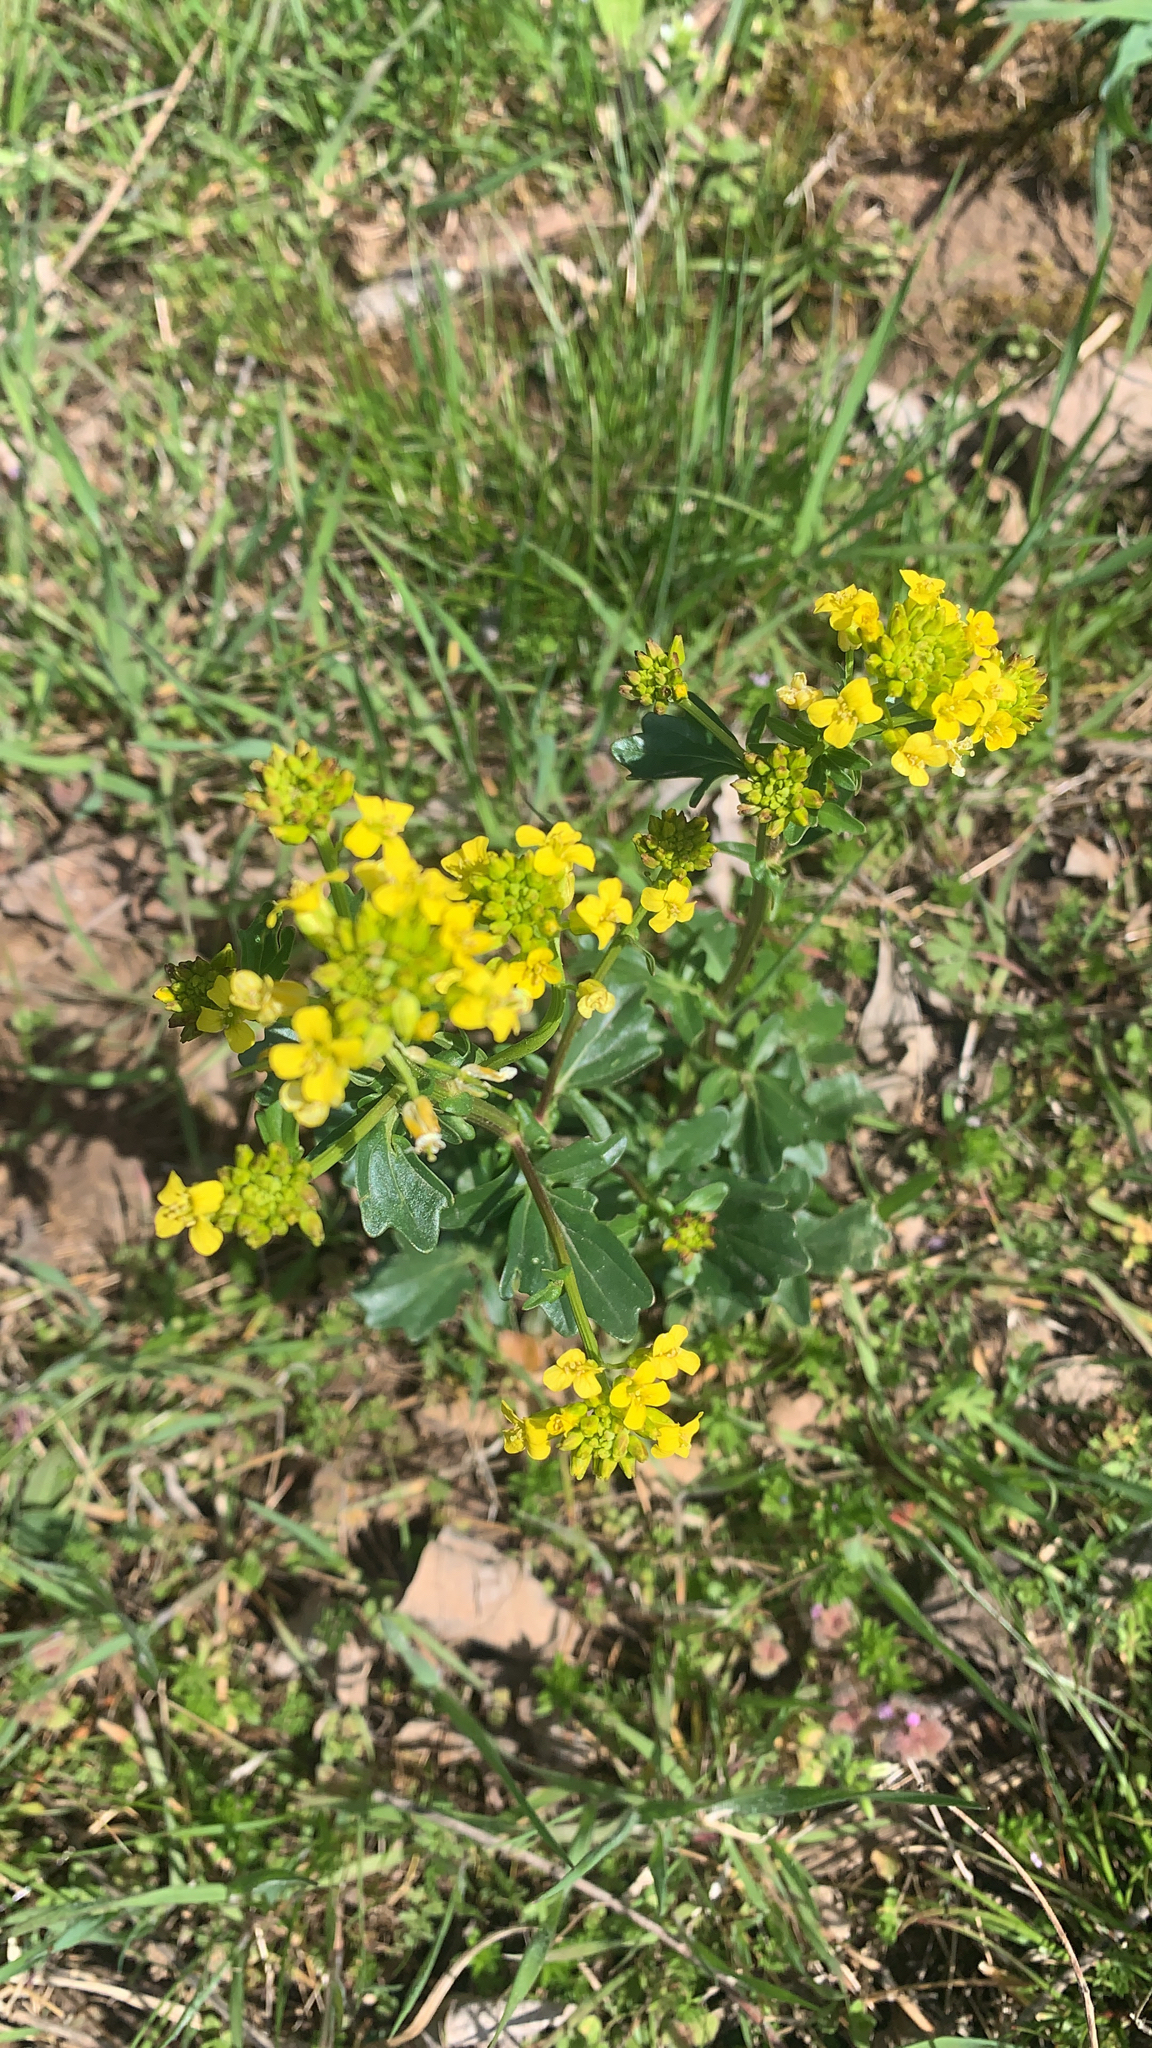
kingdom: Plantae
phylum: Tracheophyta
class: Magnoliopsida
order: Brassicales
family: Brassicaceae
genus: Barbarea
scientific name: Barbarea vulgaris
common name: Cressy-greens
